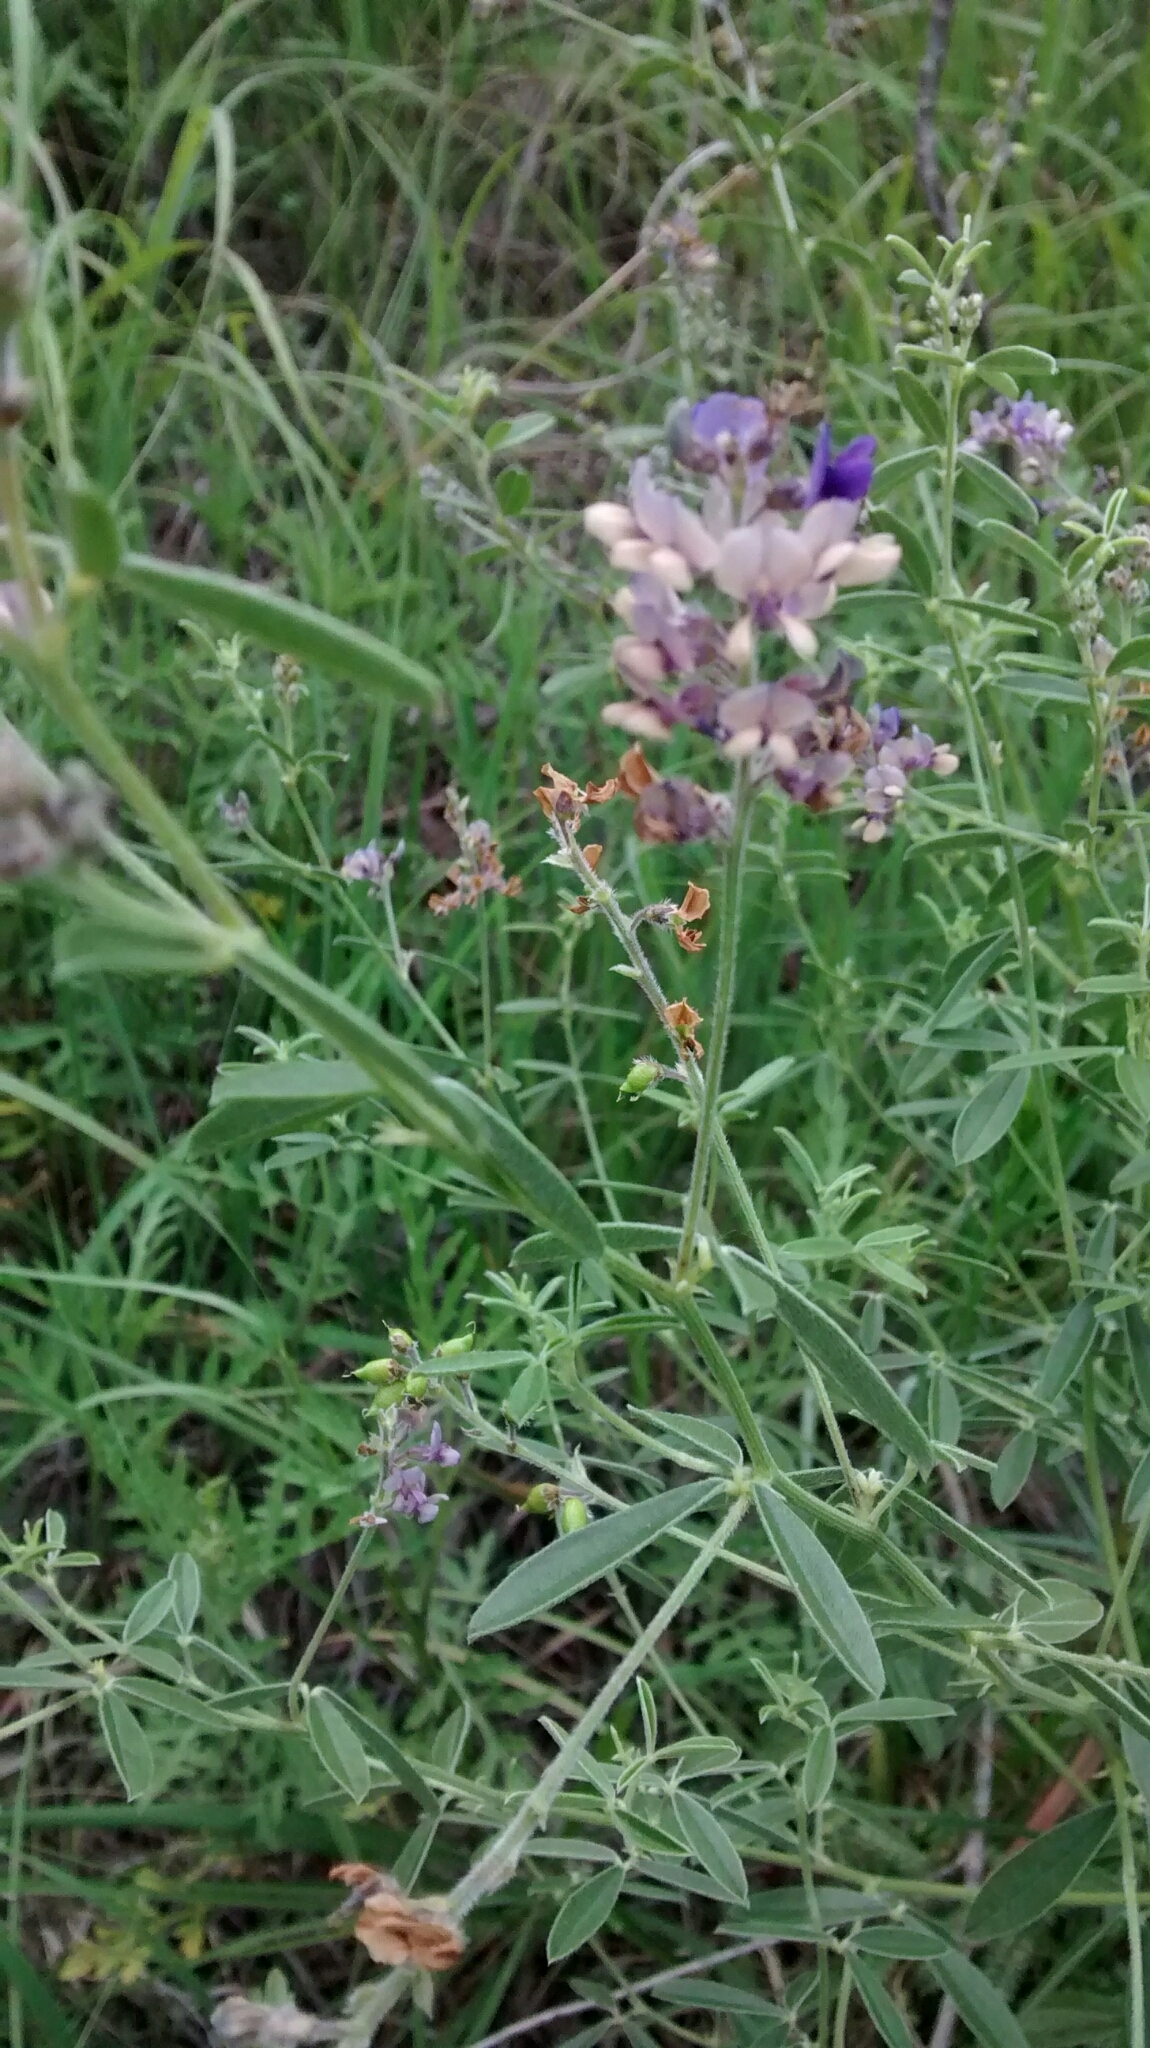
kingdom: Plantae
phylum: Tracheophyta
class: Magnoliopsida
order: Fabales
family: Fabaceae
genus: Pediomelum
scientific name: Pediomelum tenuiflorum
